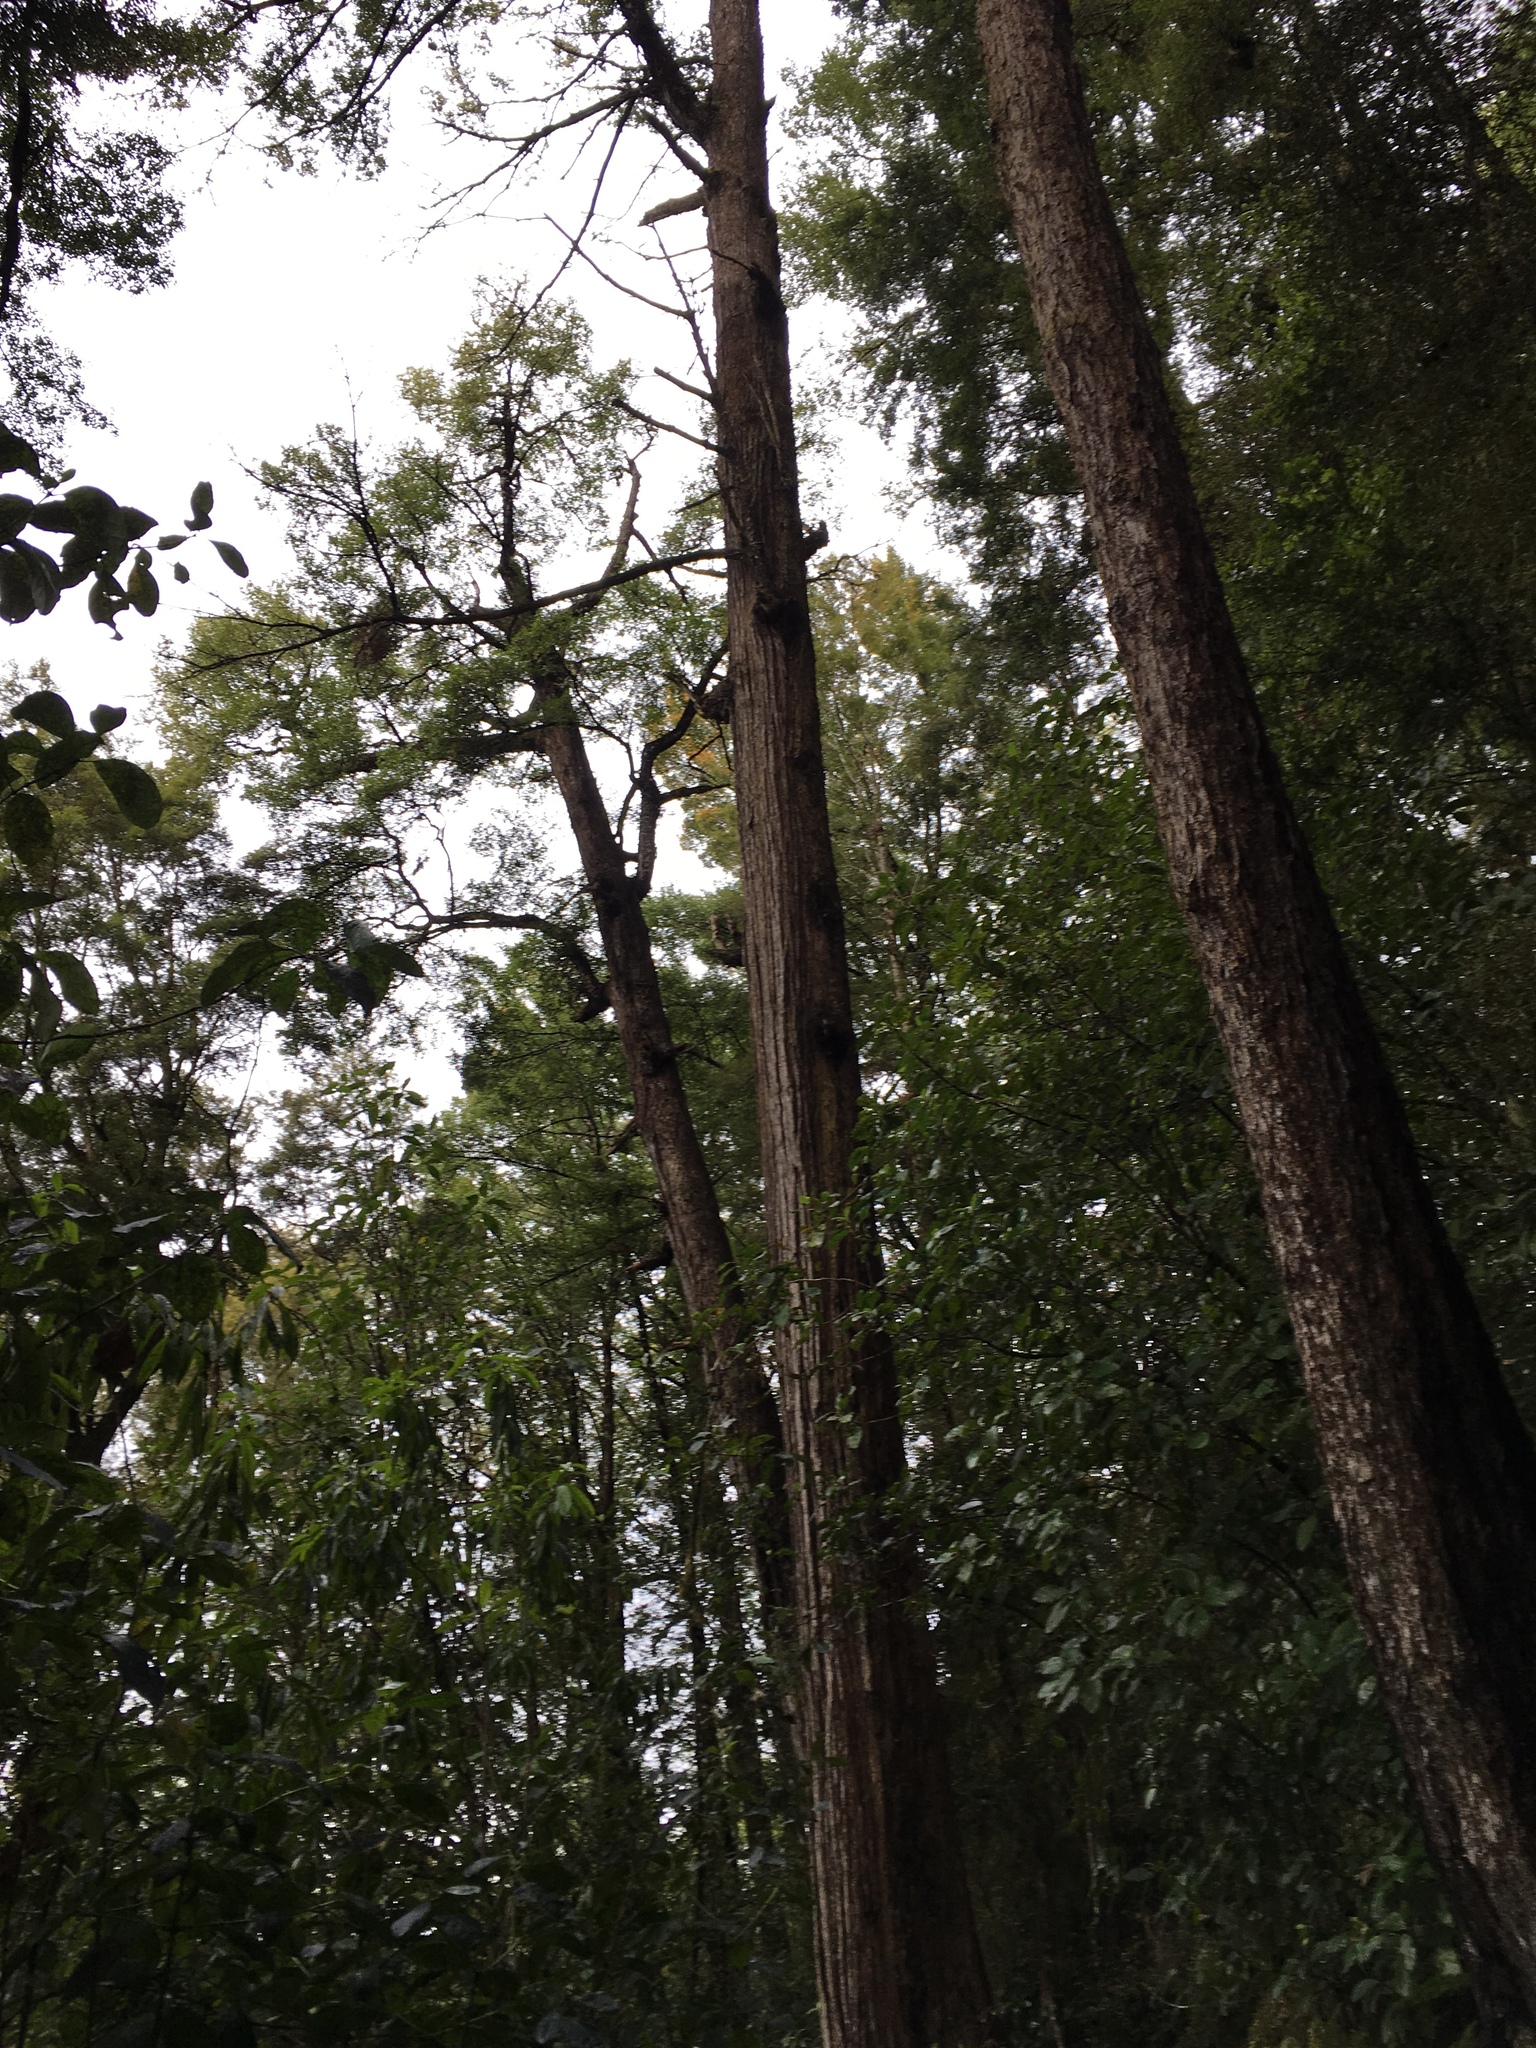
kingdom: Plantae
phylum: Tracheophyta
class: Magnoliopsida
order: Fagales
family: Nothofagaceae
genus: Nothofagus
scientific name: Nothofagus fusca
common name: Red beech
